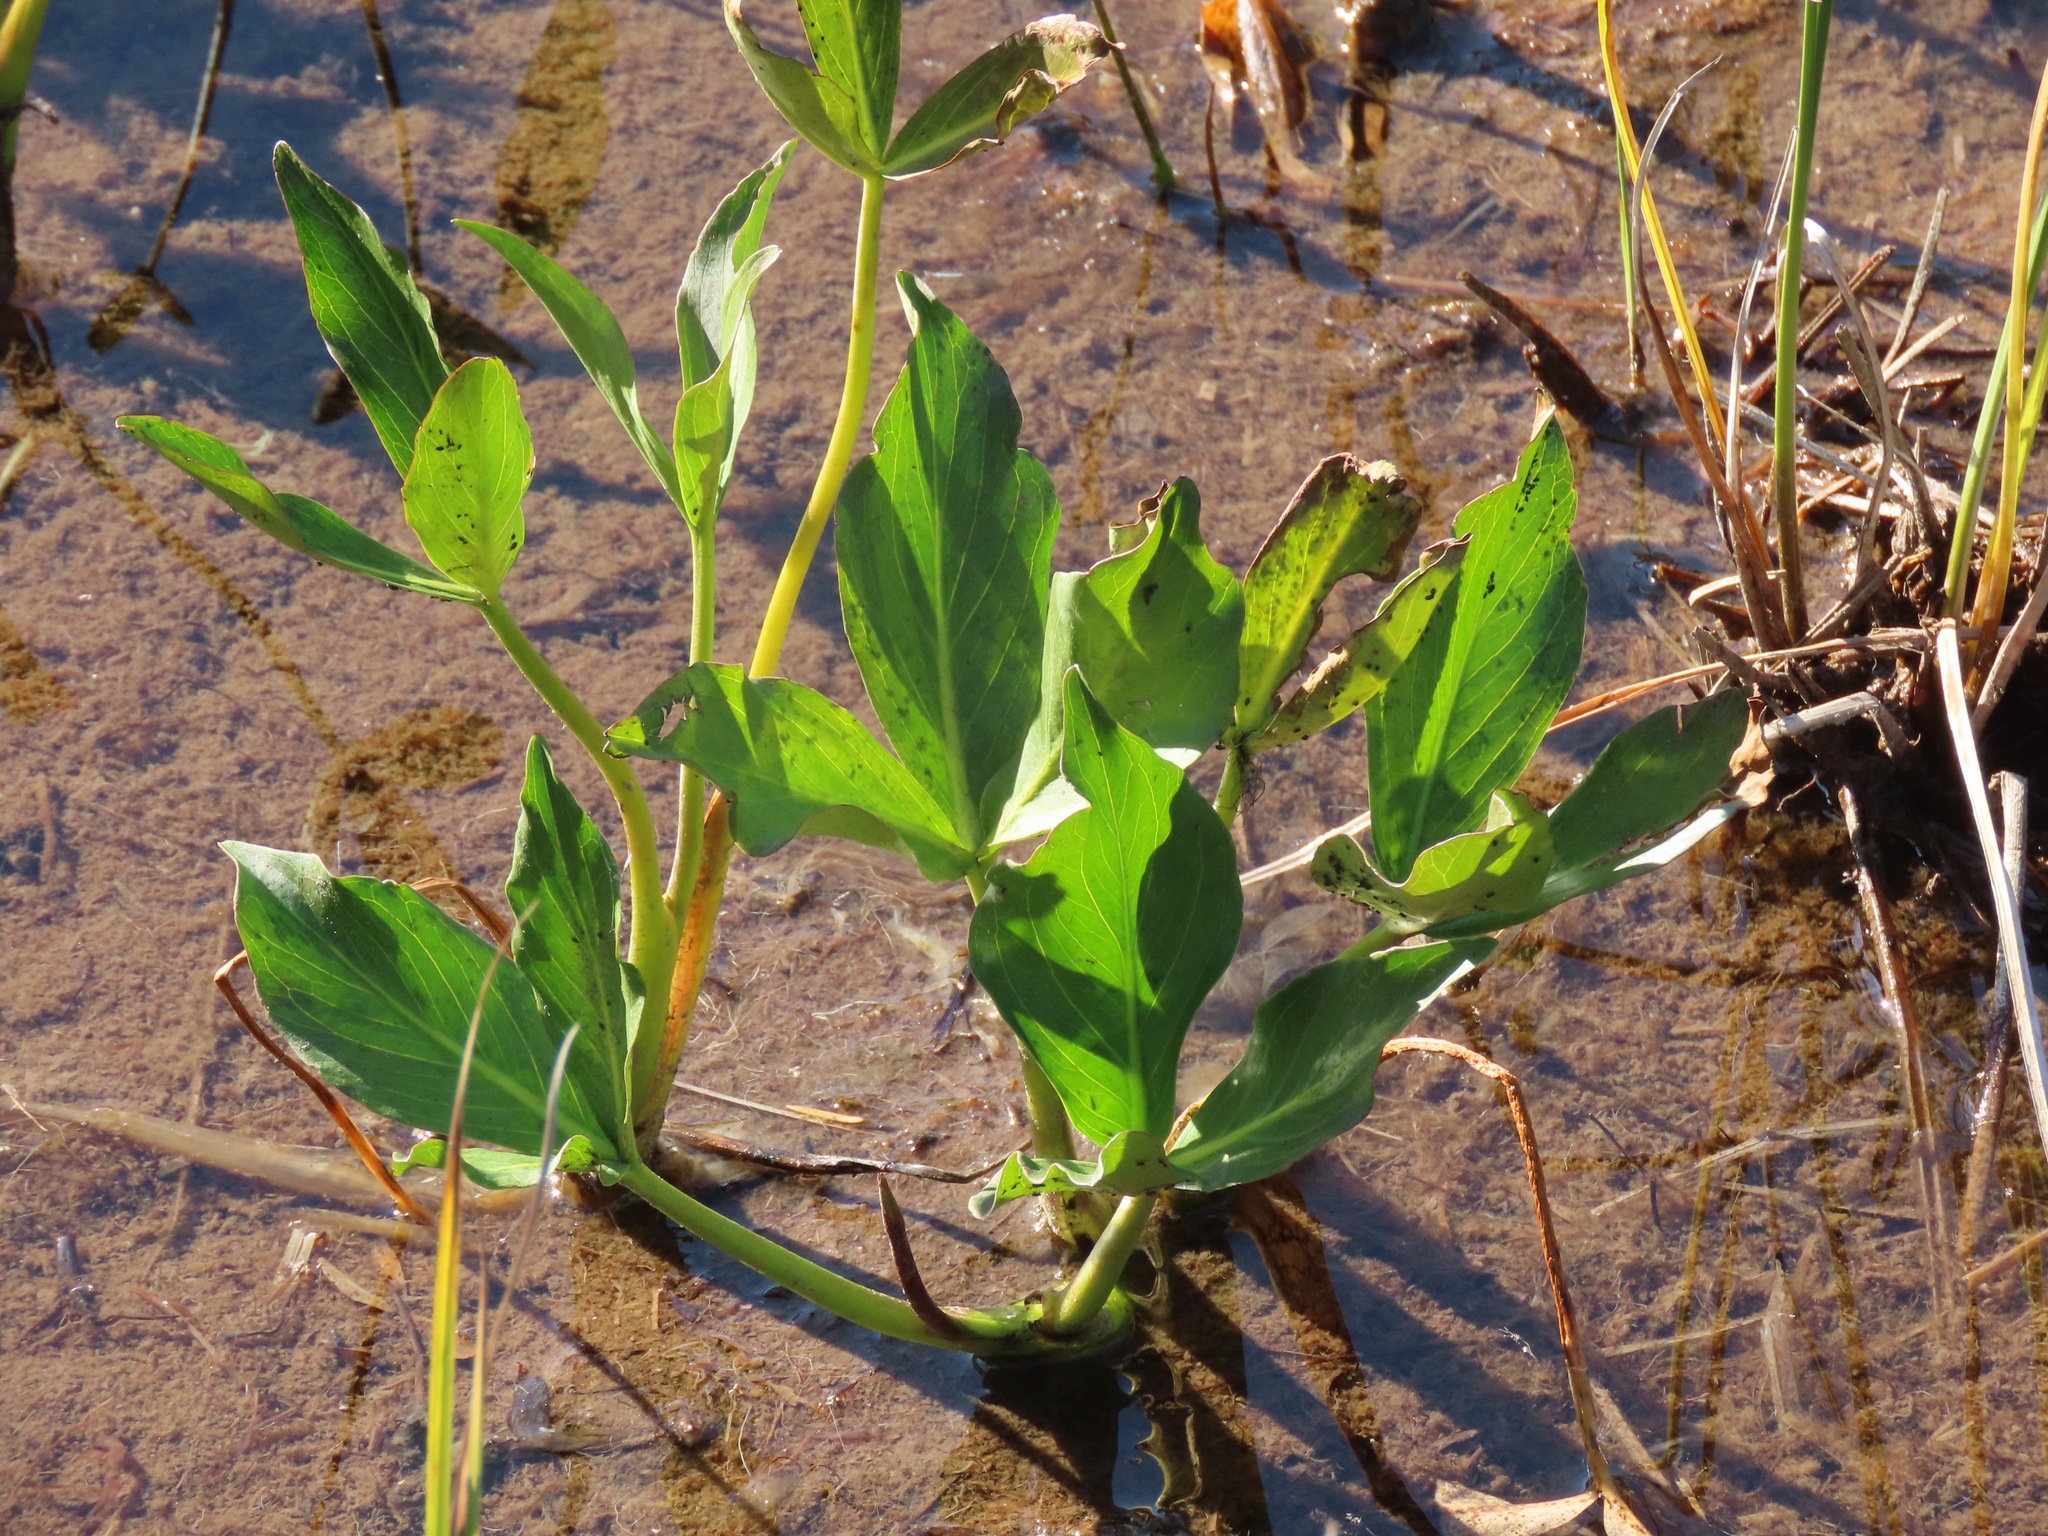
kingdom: Plantae
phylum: Tracheophyta
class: Magnoliopsida
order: Asterales
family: Menyanthaceae
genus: Menyanthes
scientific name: Menyanthes trifoliata
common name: Bogbean
